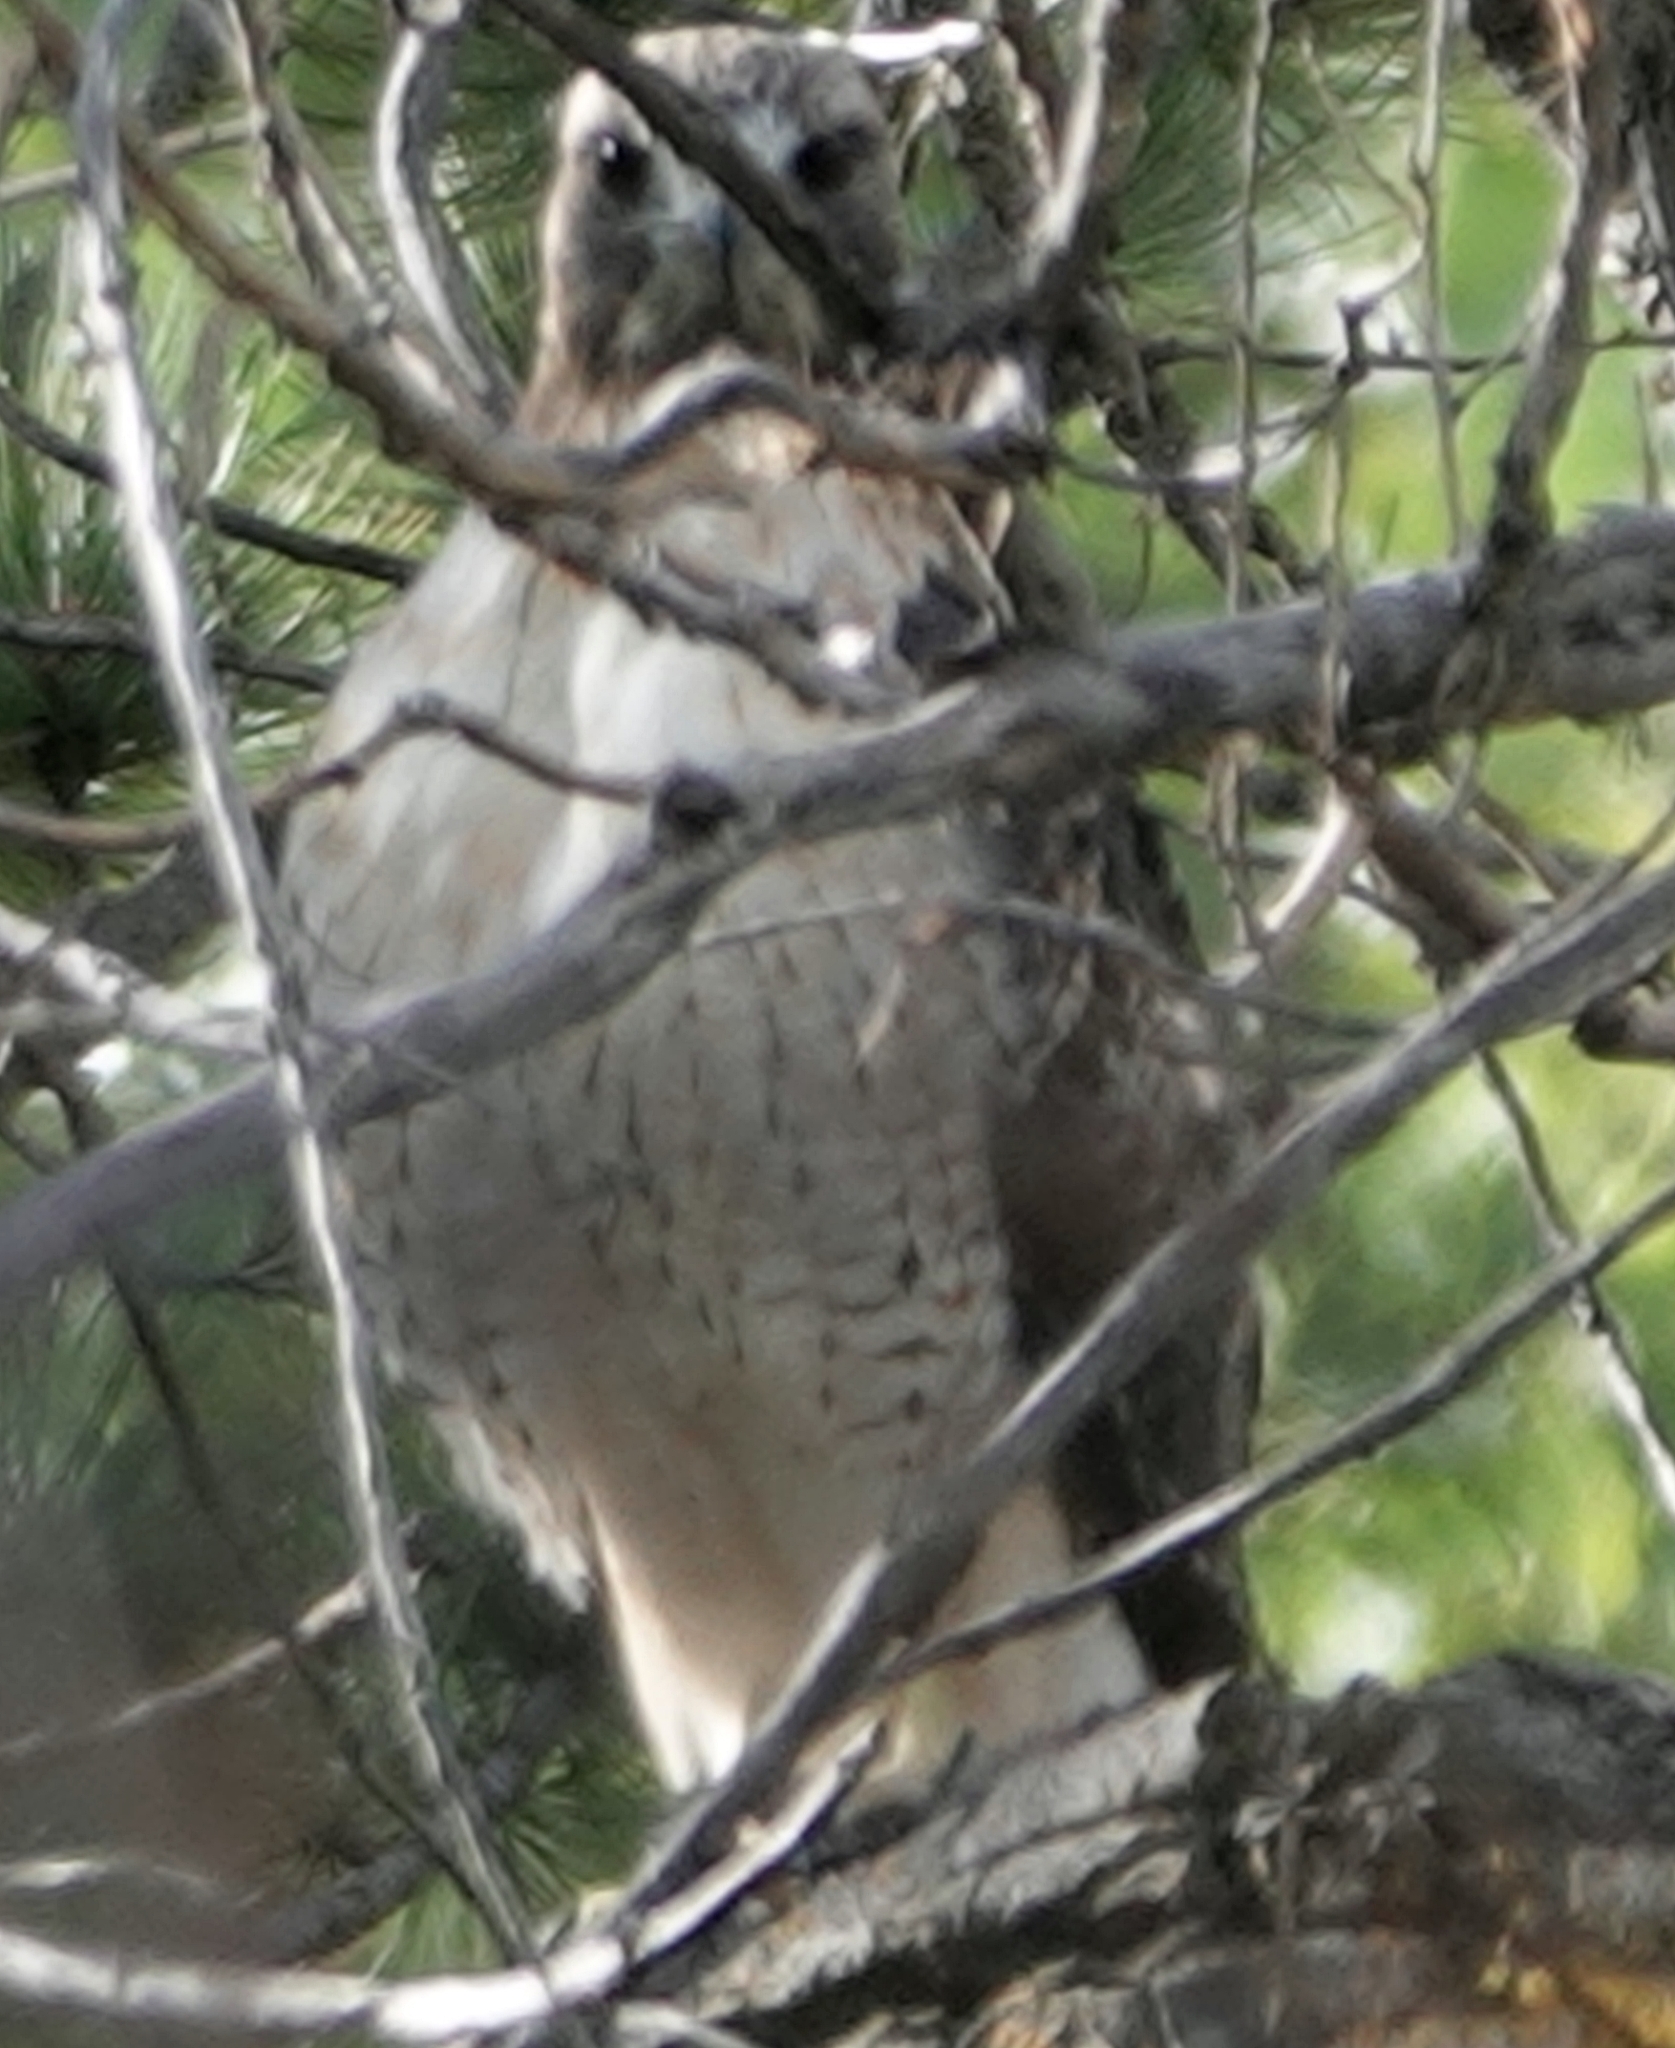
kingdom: Animalia
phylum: Chordata
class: Aves
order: Accipitriformes
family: Accipitridae
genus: Buteo
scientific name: Buteo jamaicensis
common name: Red-tailed hawk
